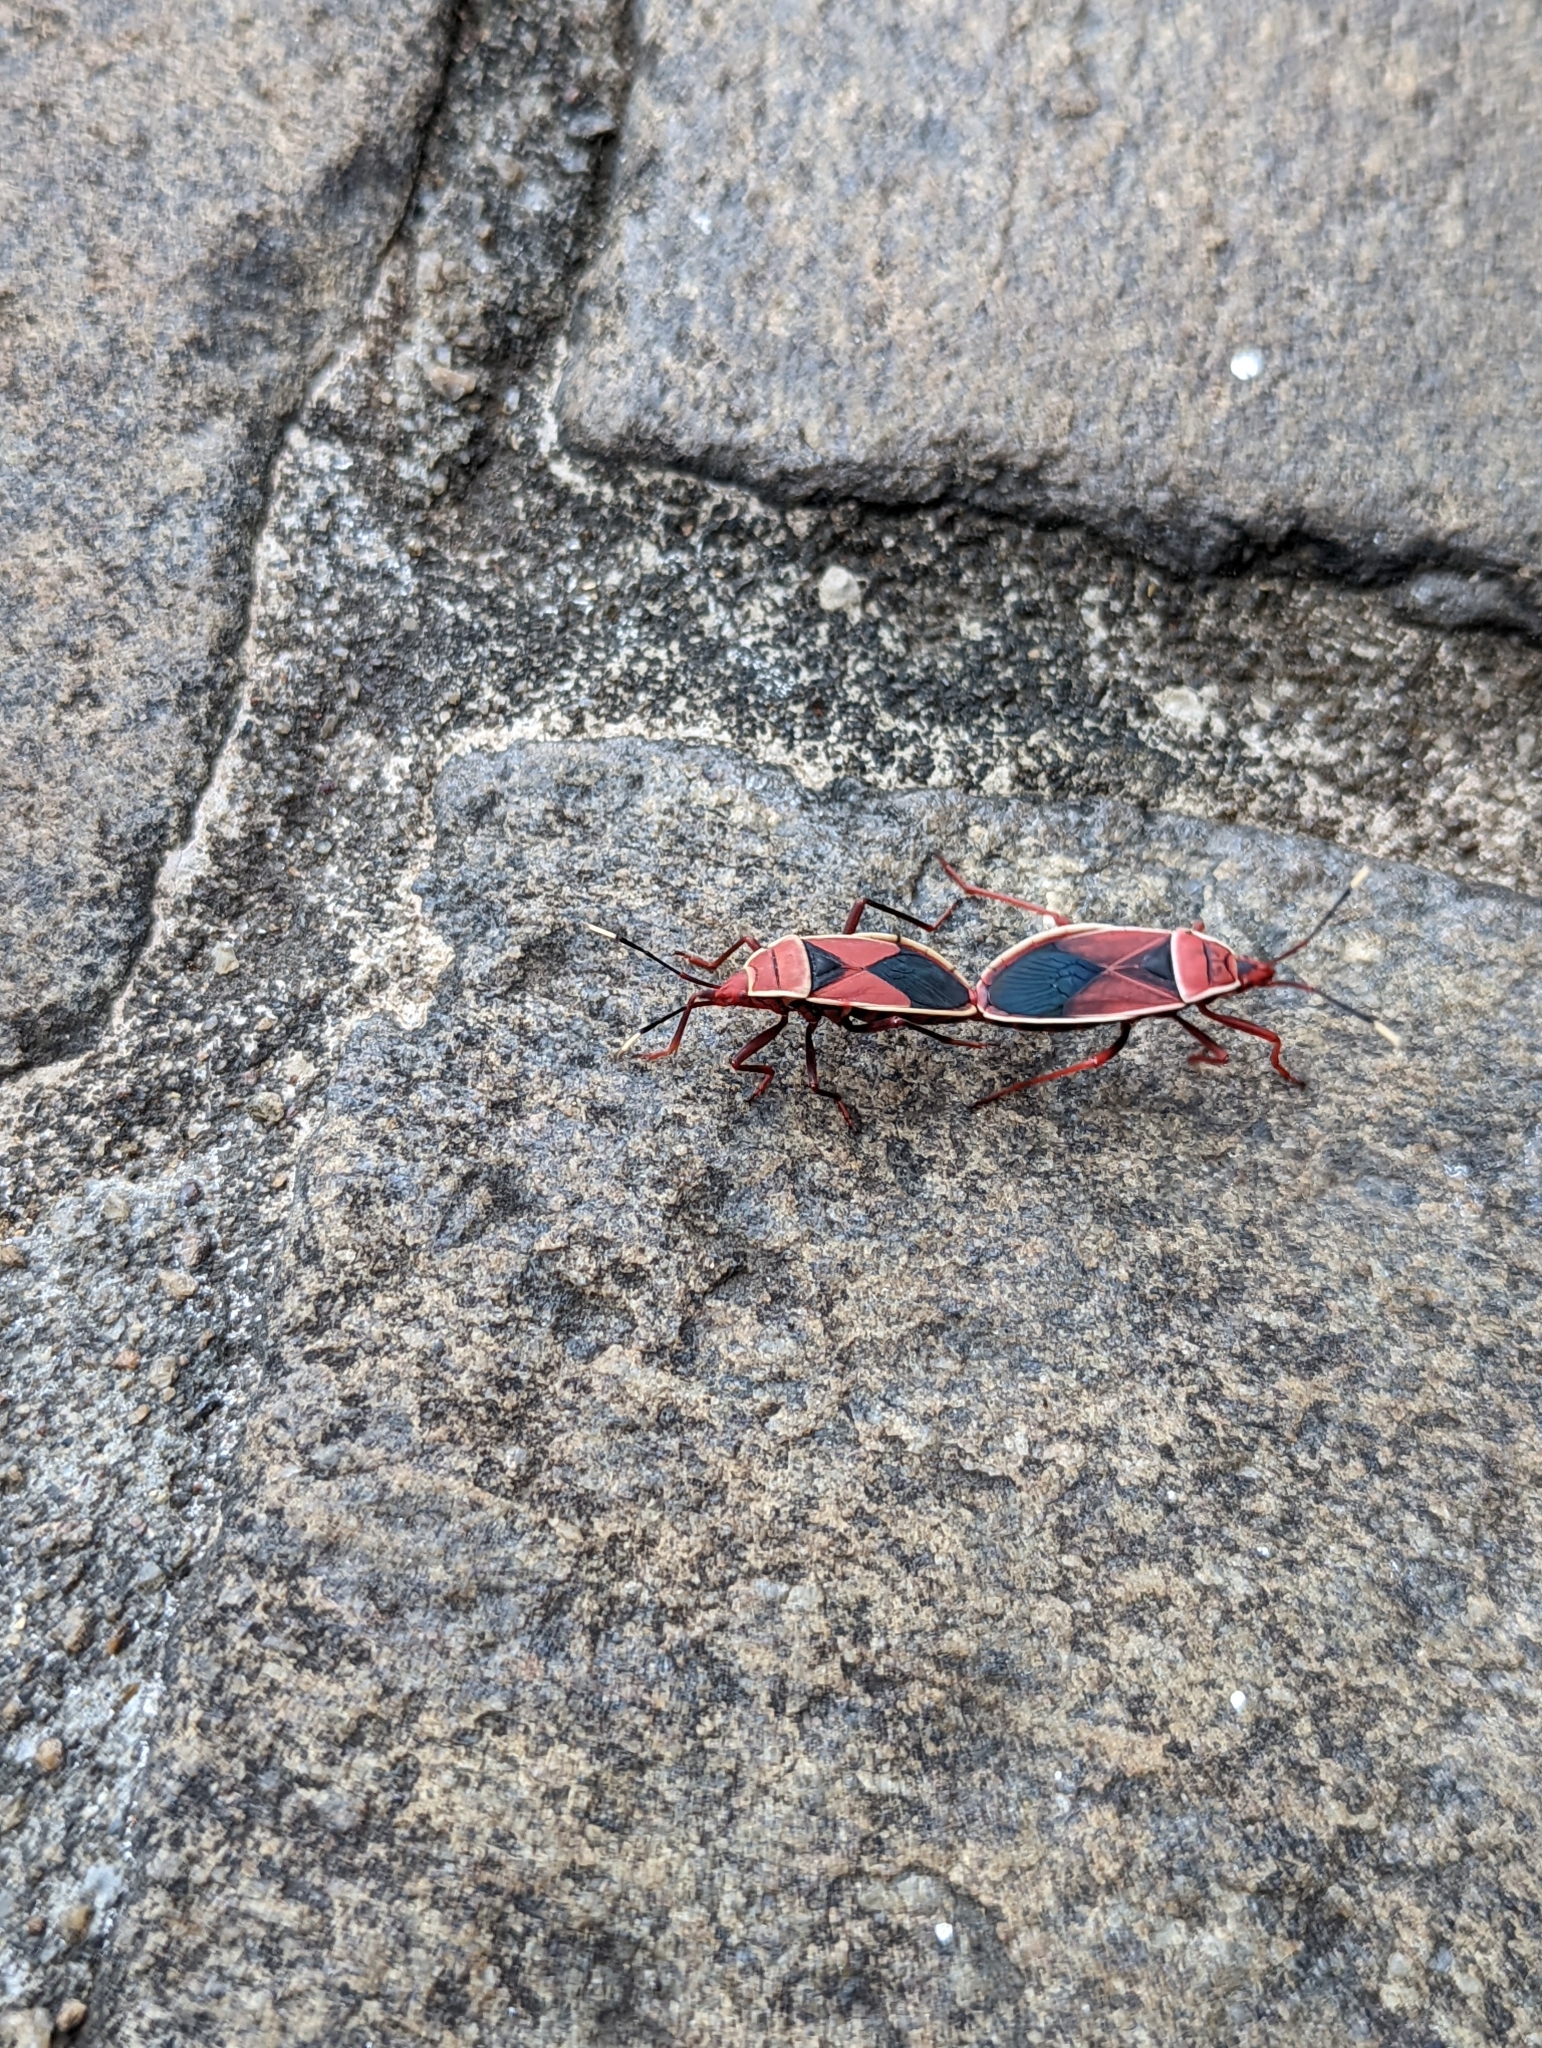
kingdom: Animalia
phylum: Arthropoda
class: Insecta
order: Hemiptera
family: Pyrrhocoridae
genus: Probergrothius
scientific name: Probergrothius varicornis
